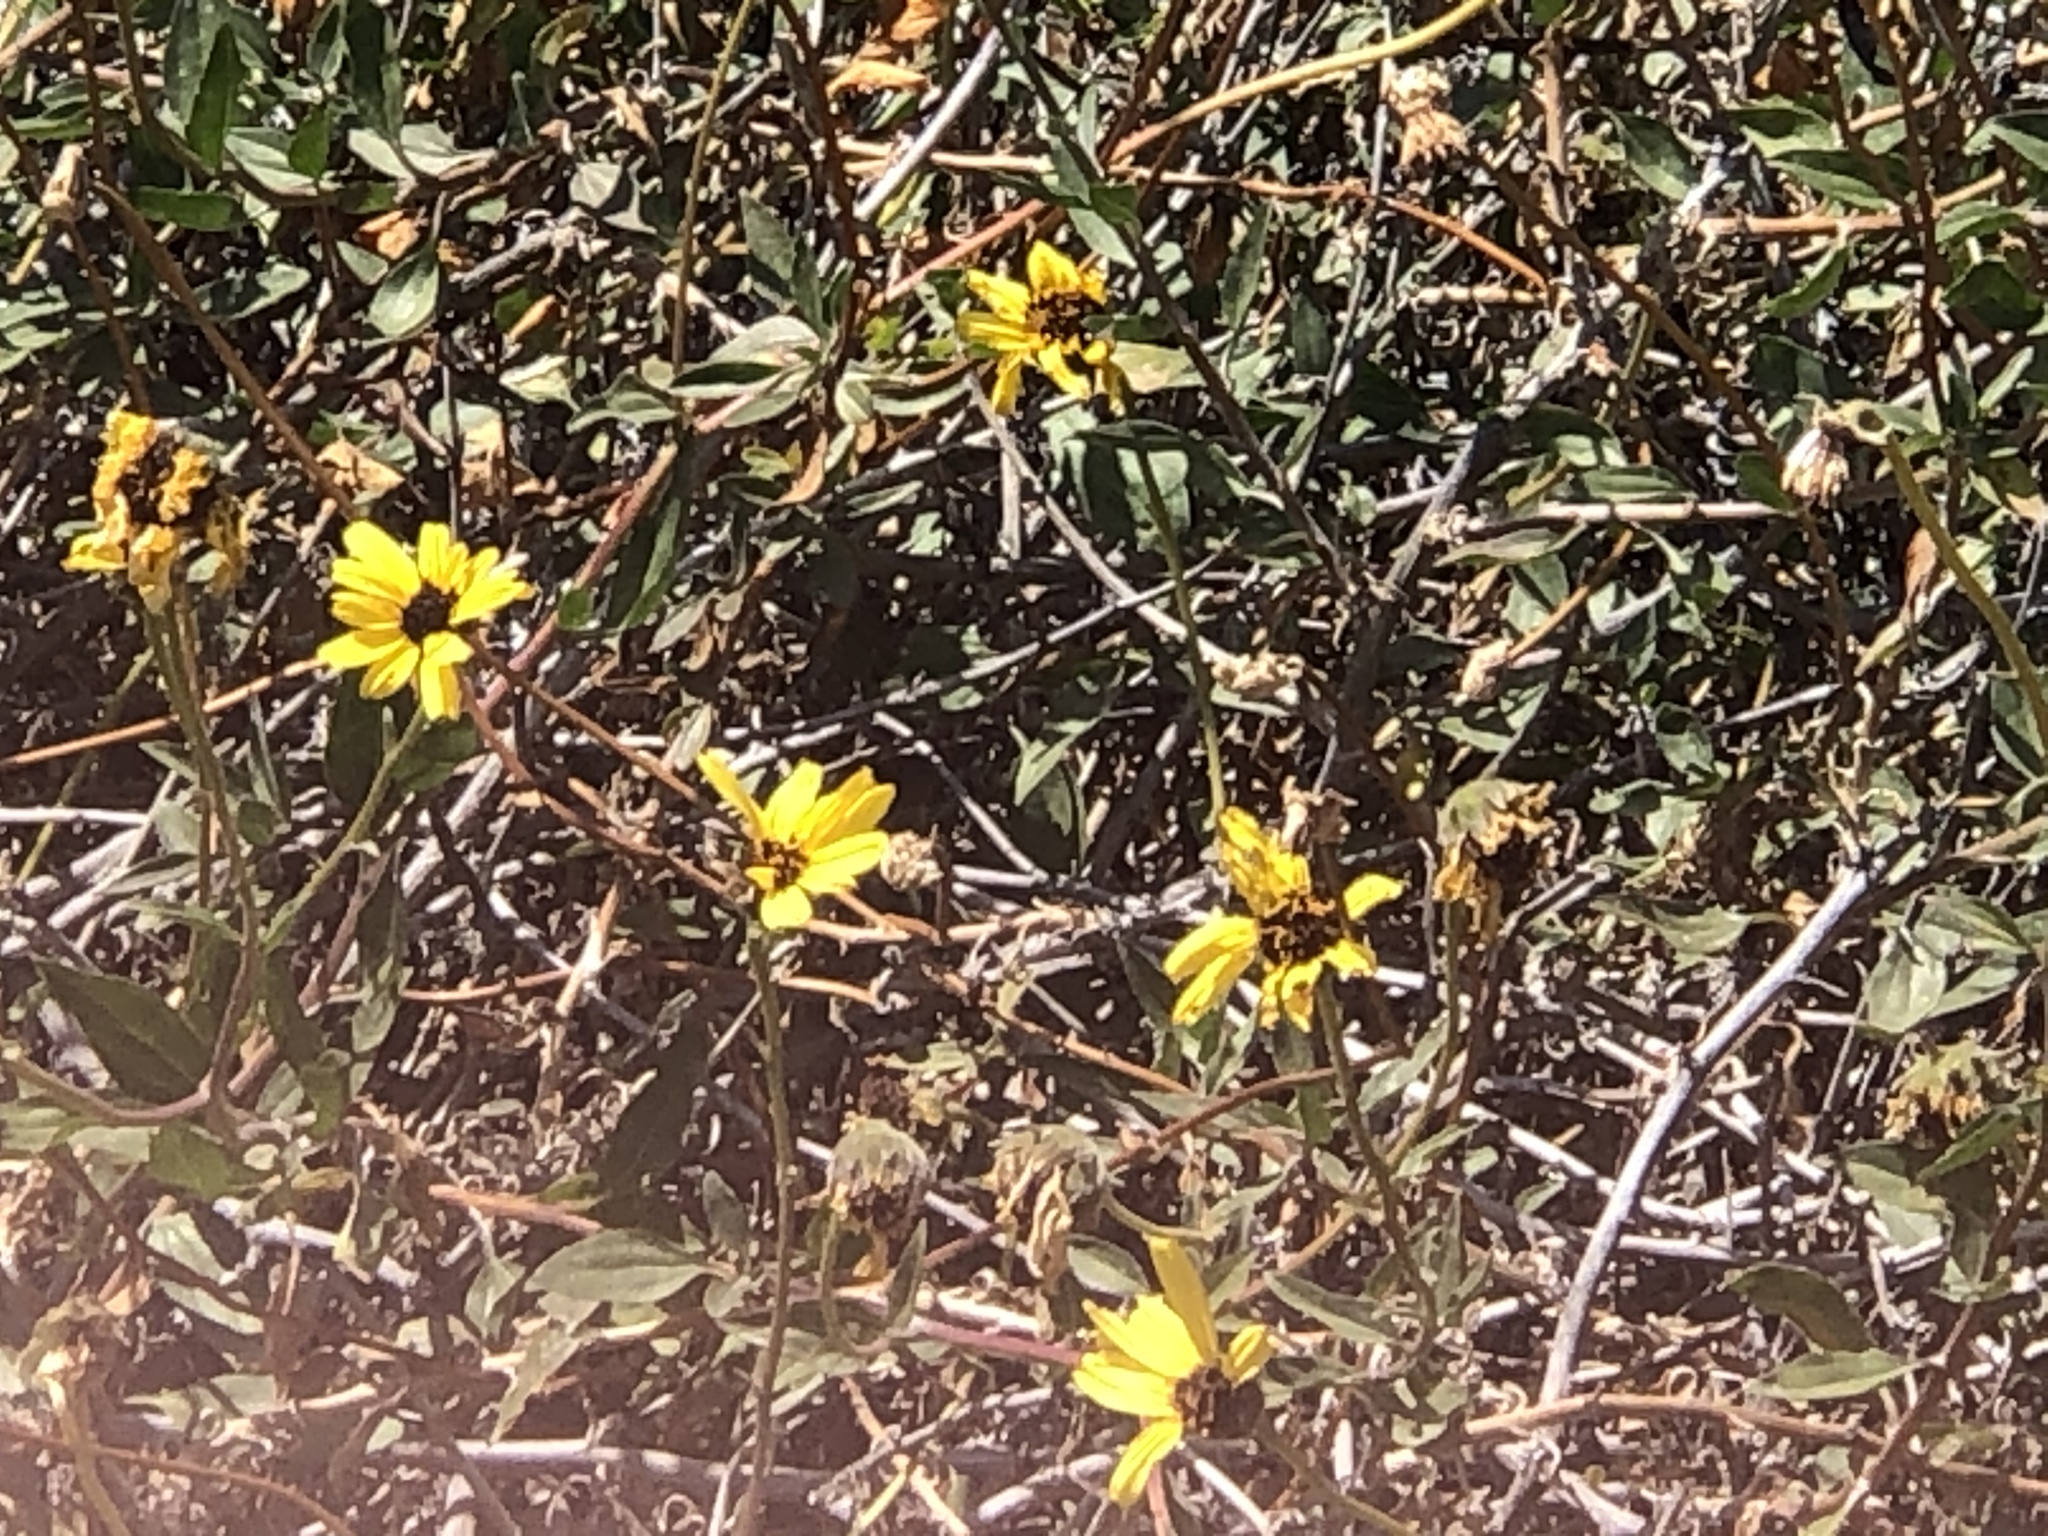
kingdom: Plantae
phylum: Tracheophyta
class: Magnoliopsida
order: Asterales
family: Asteraceae
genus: Encelia
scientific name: Encelia californica
